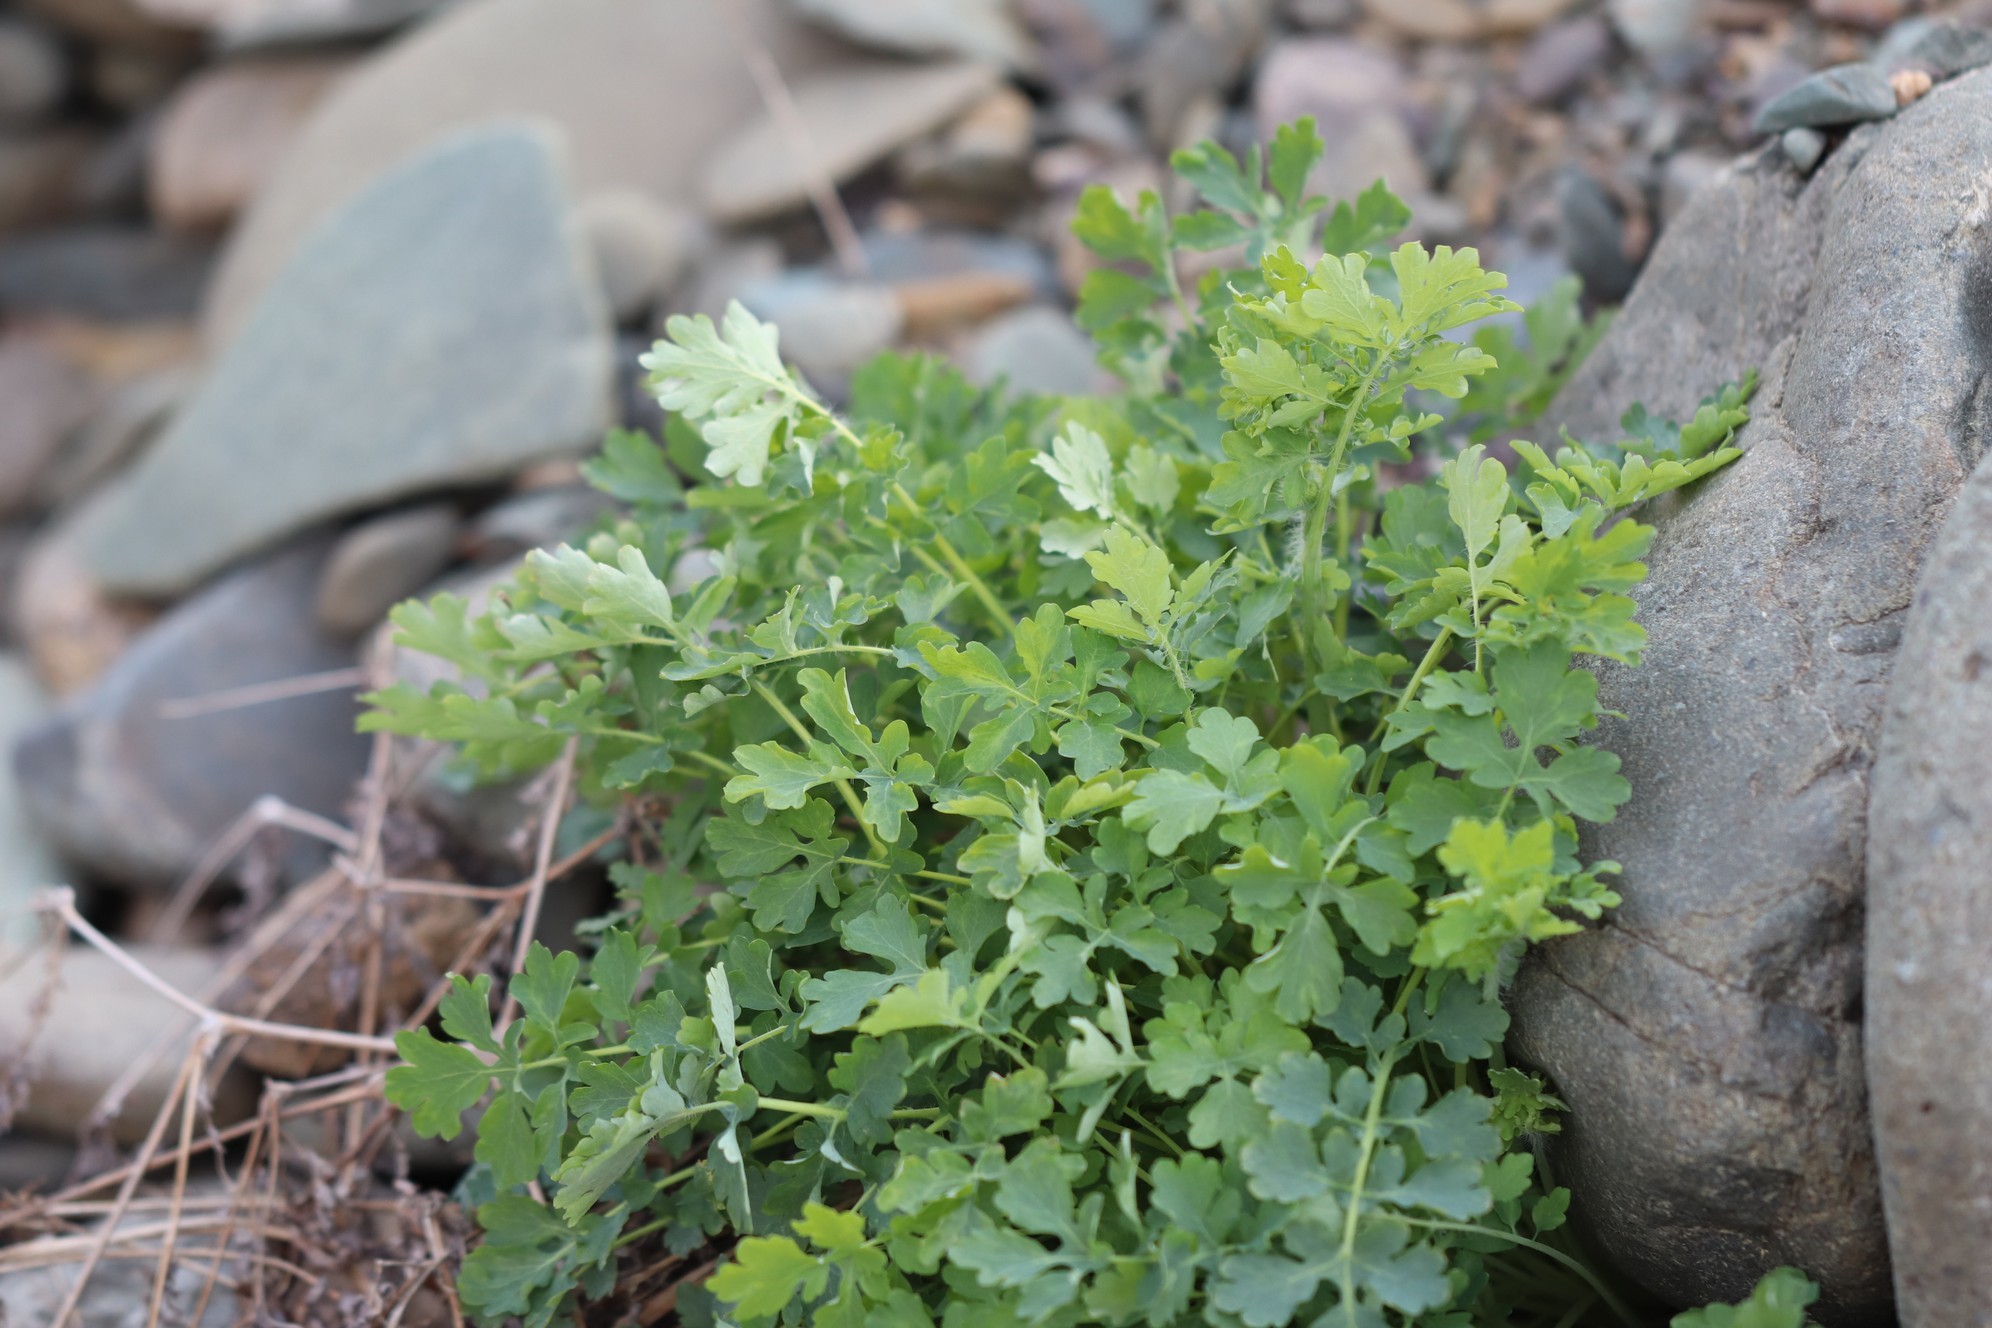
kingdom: Plantae
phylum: Tracheophyta
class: Magnoliopsida
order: Ranunculales
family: Papaveraceae
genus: Chelidonium
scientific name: Chelidonium majus
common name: Greater celandine
